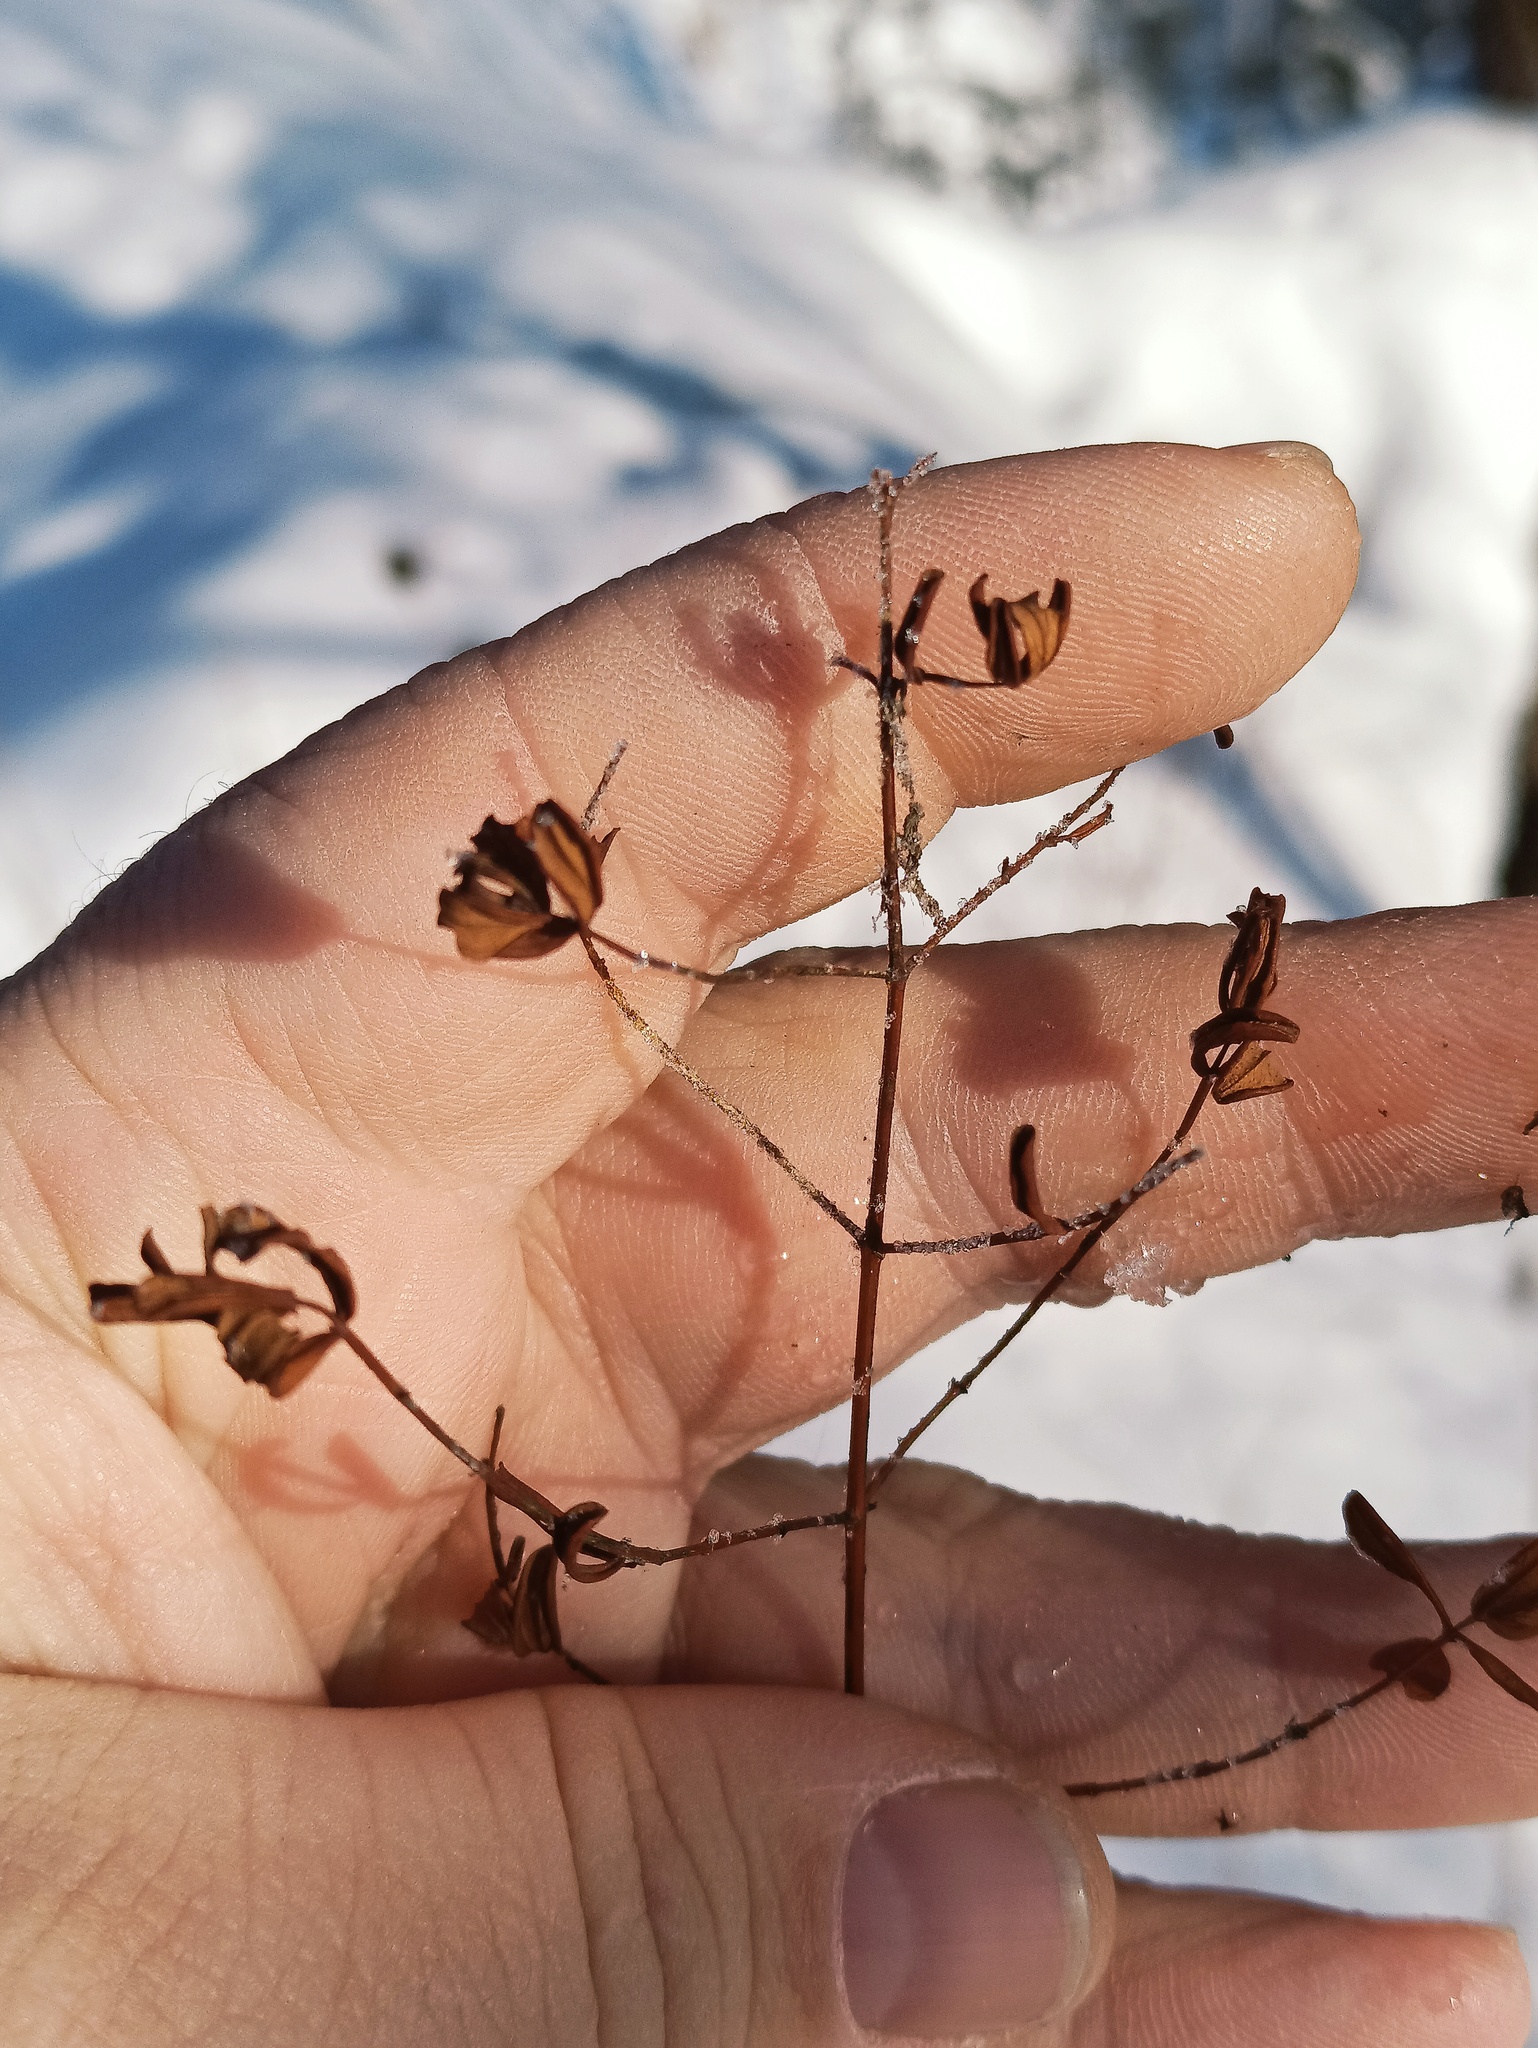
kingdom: Plantae
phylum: Tracheophyta
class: Magnoliopsida
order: Malpighiales
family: Hypericaceae
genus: Hypericum
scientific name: Hypericum perforatum
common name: Common st. johnswort
